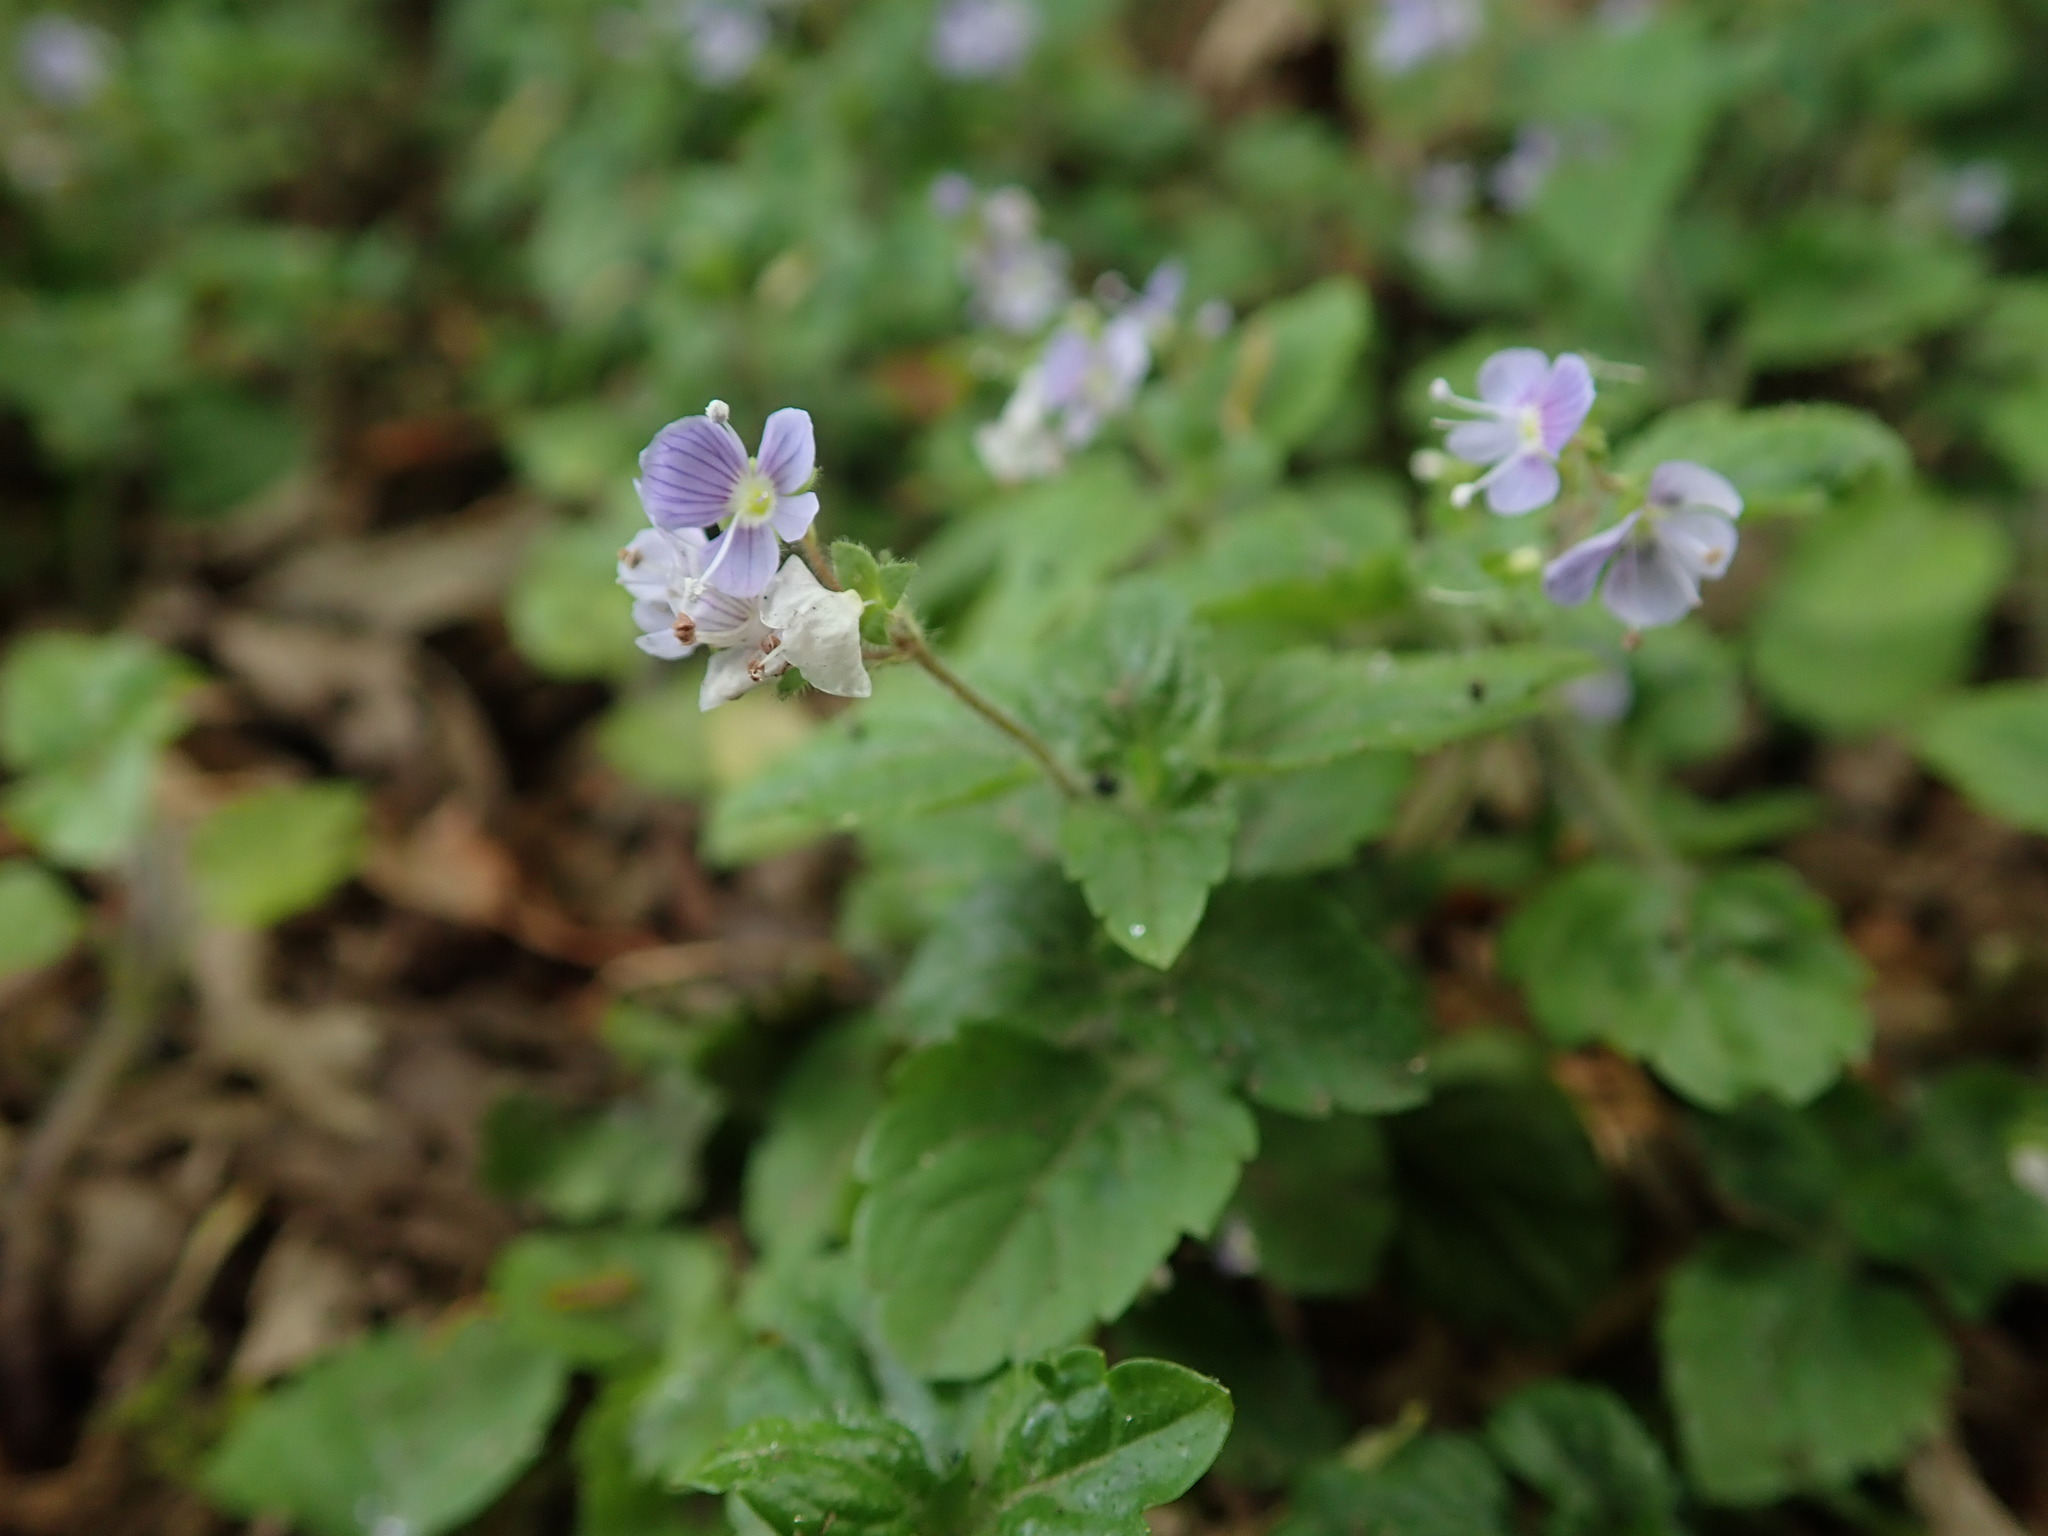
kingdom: Plantae
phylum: Tracheophyta
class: Magnoliopsida
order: Lamiales
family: Plantaginaceae
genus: Veronica
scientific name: Veronica montana
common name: Wood speedwell
